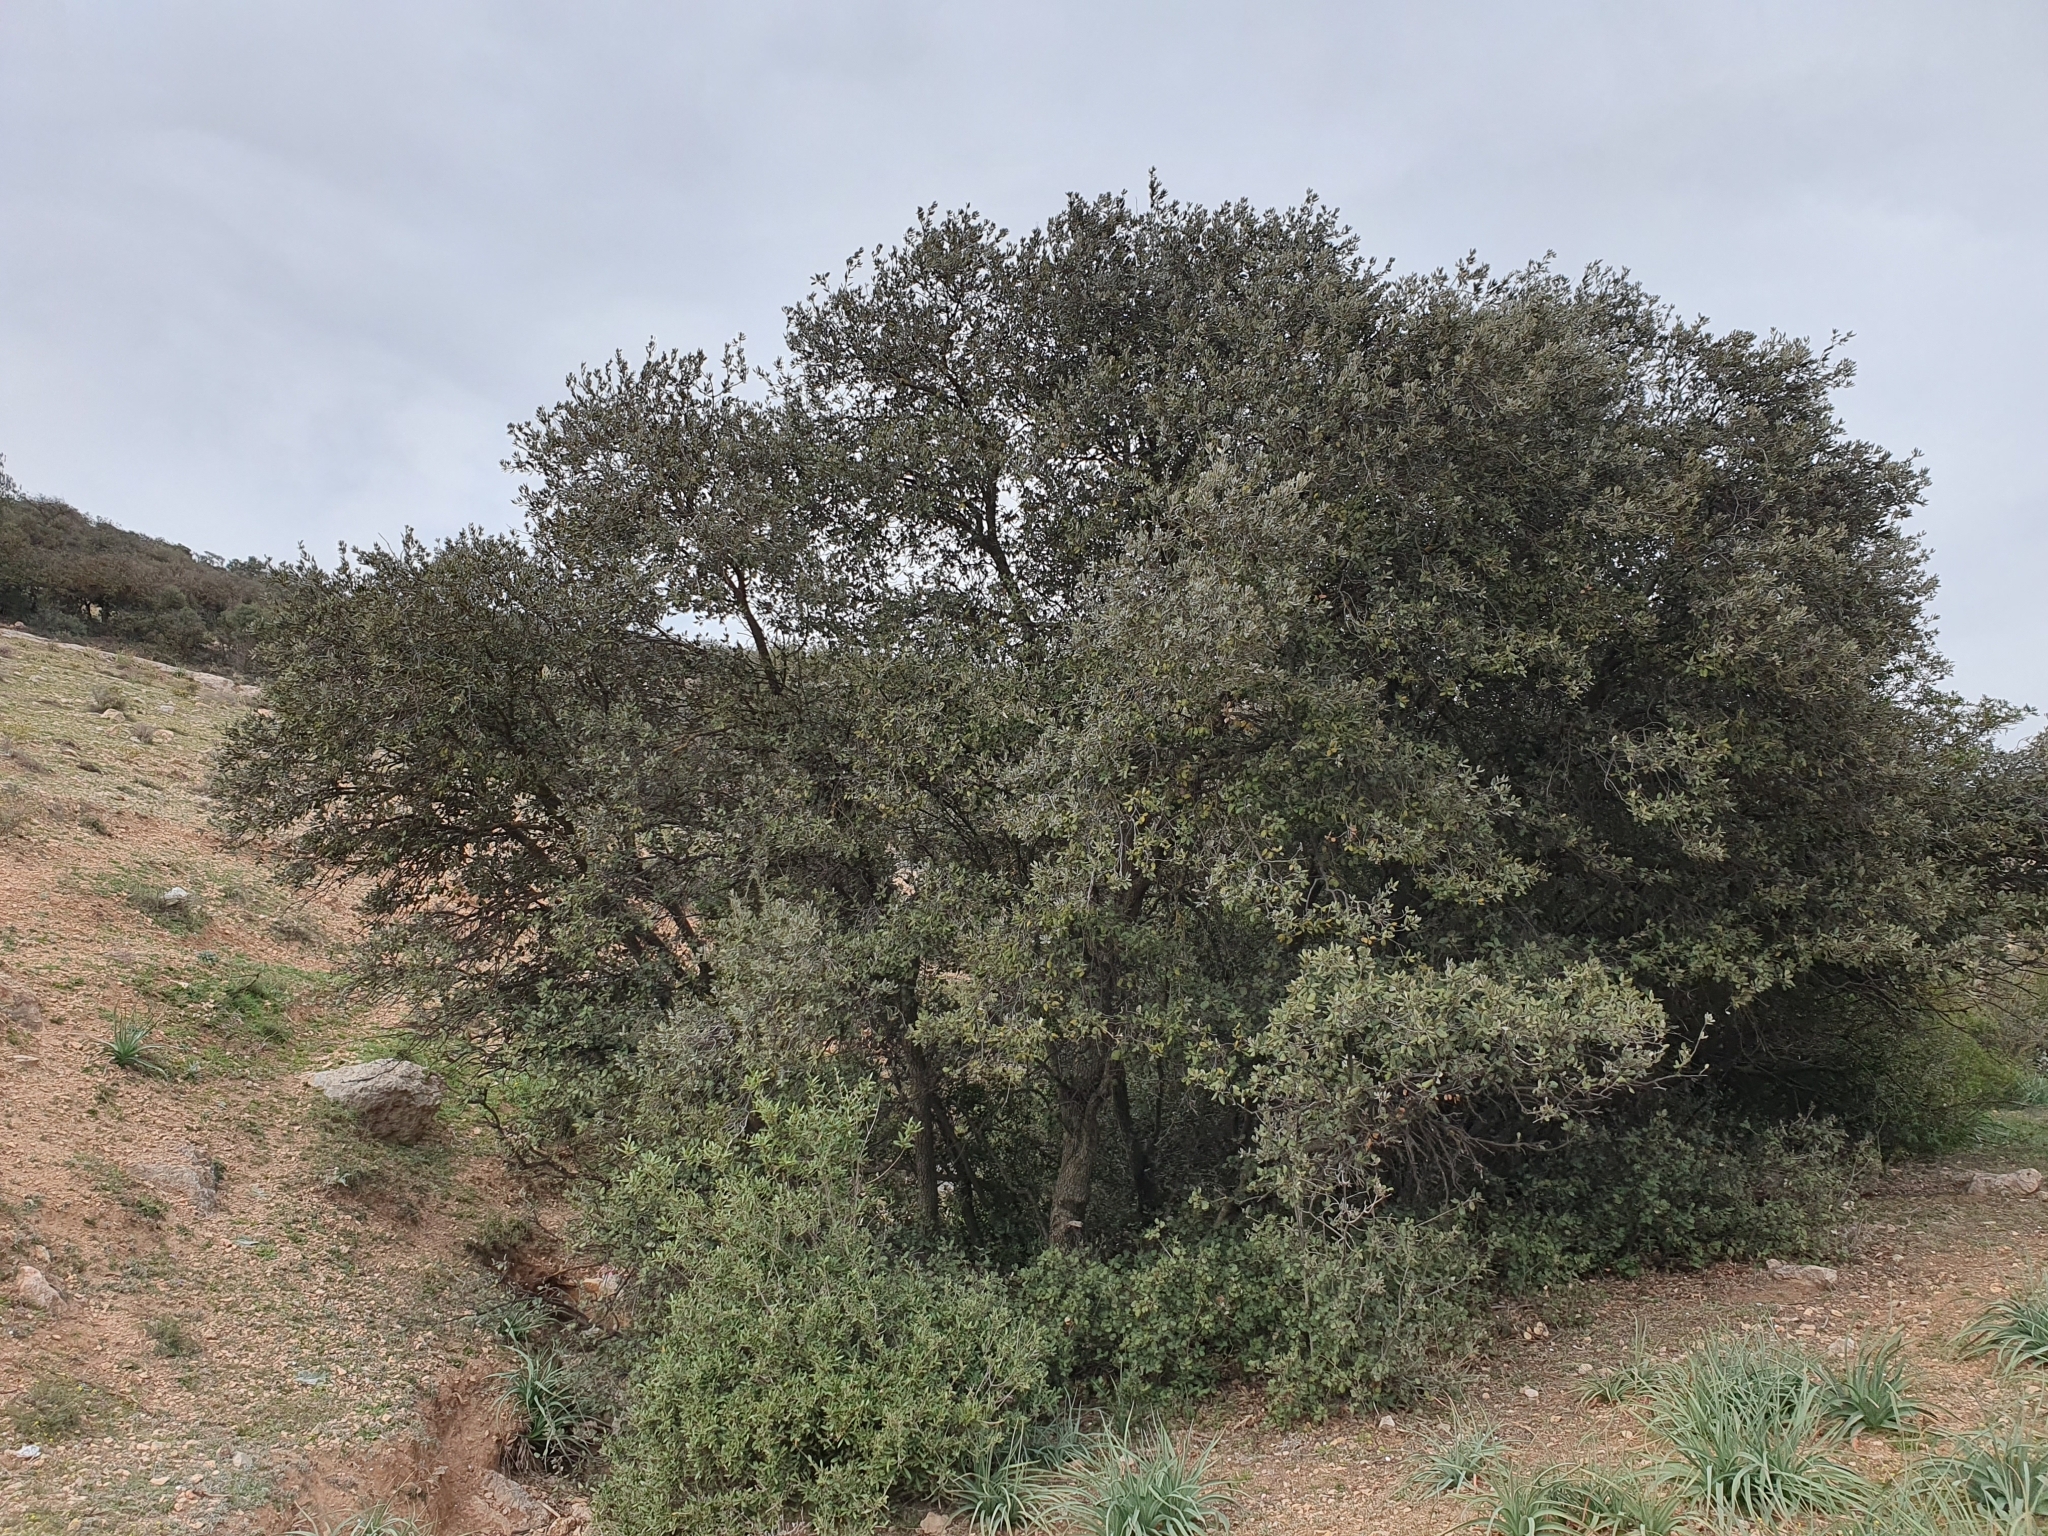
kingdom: Plantae
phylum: Tracheophyta
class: Magnoliopsida
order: Fagales
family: Fagaceae
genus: Quercus
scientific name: Quercus rotundifolia
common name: Holm oak
